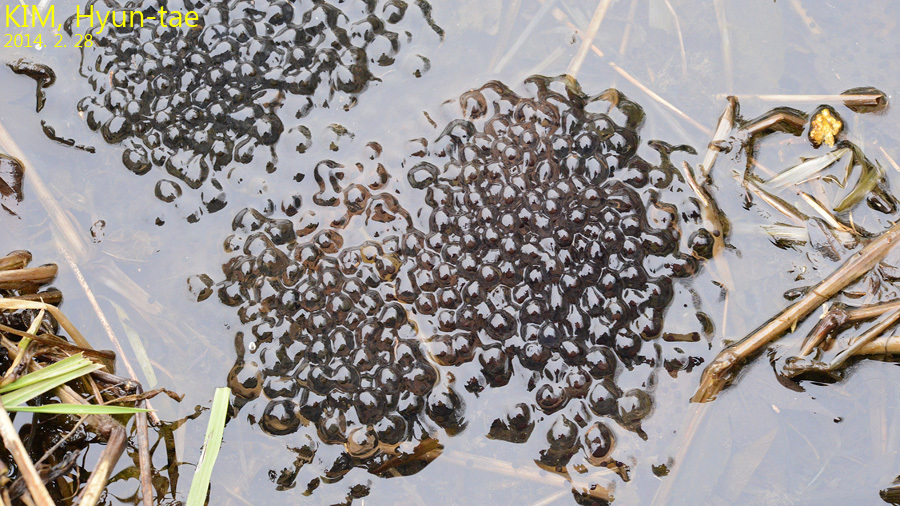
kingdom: Animalia
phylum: Chordata
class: Amphibia
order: Anura
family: Ranidae
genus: Rana
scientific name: Rana uenoi
